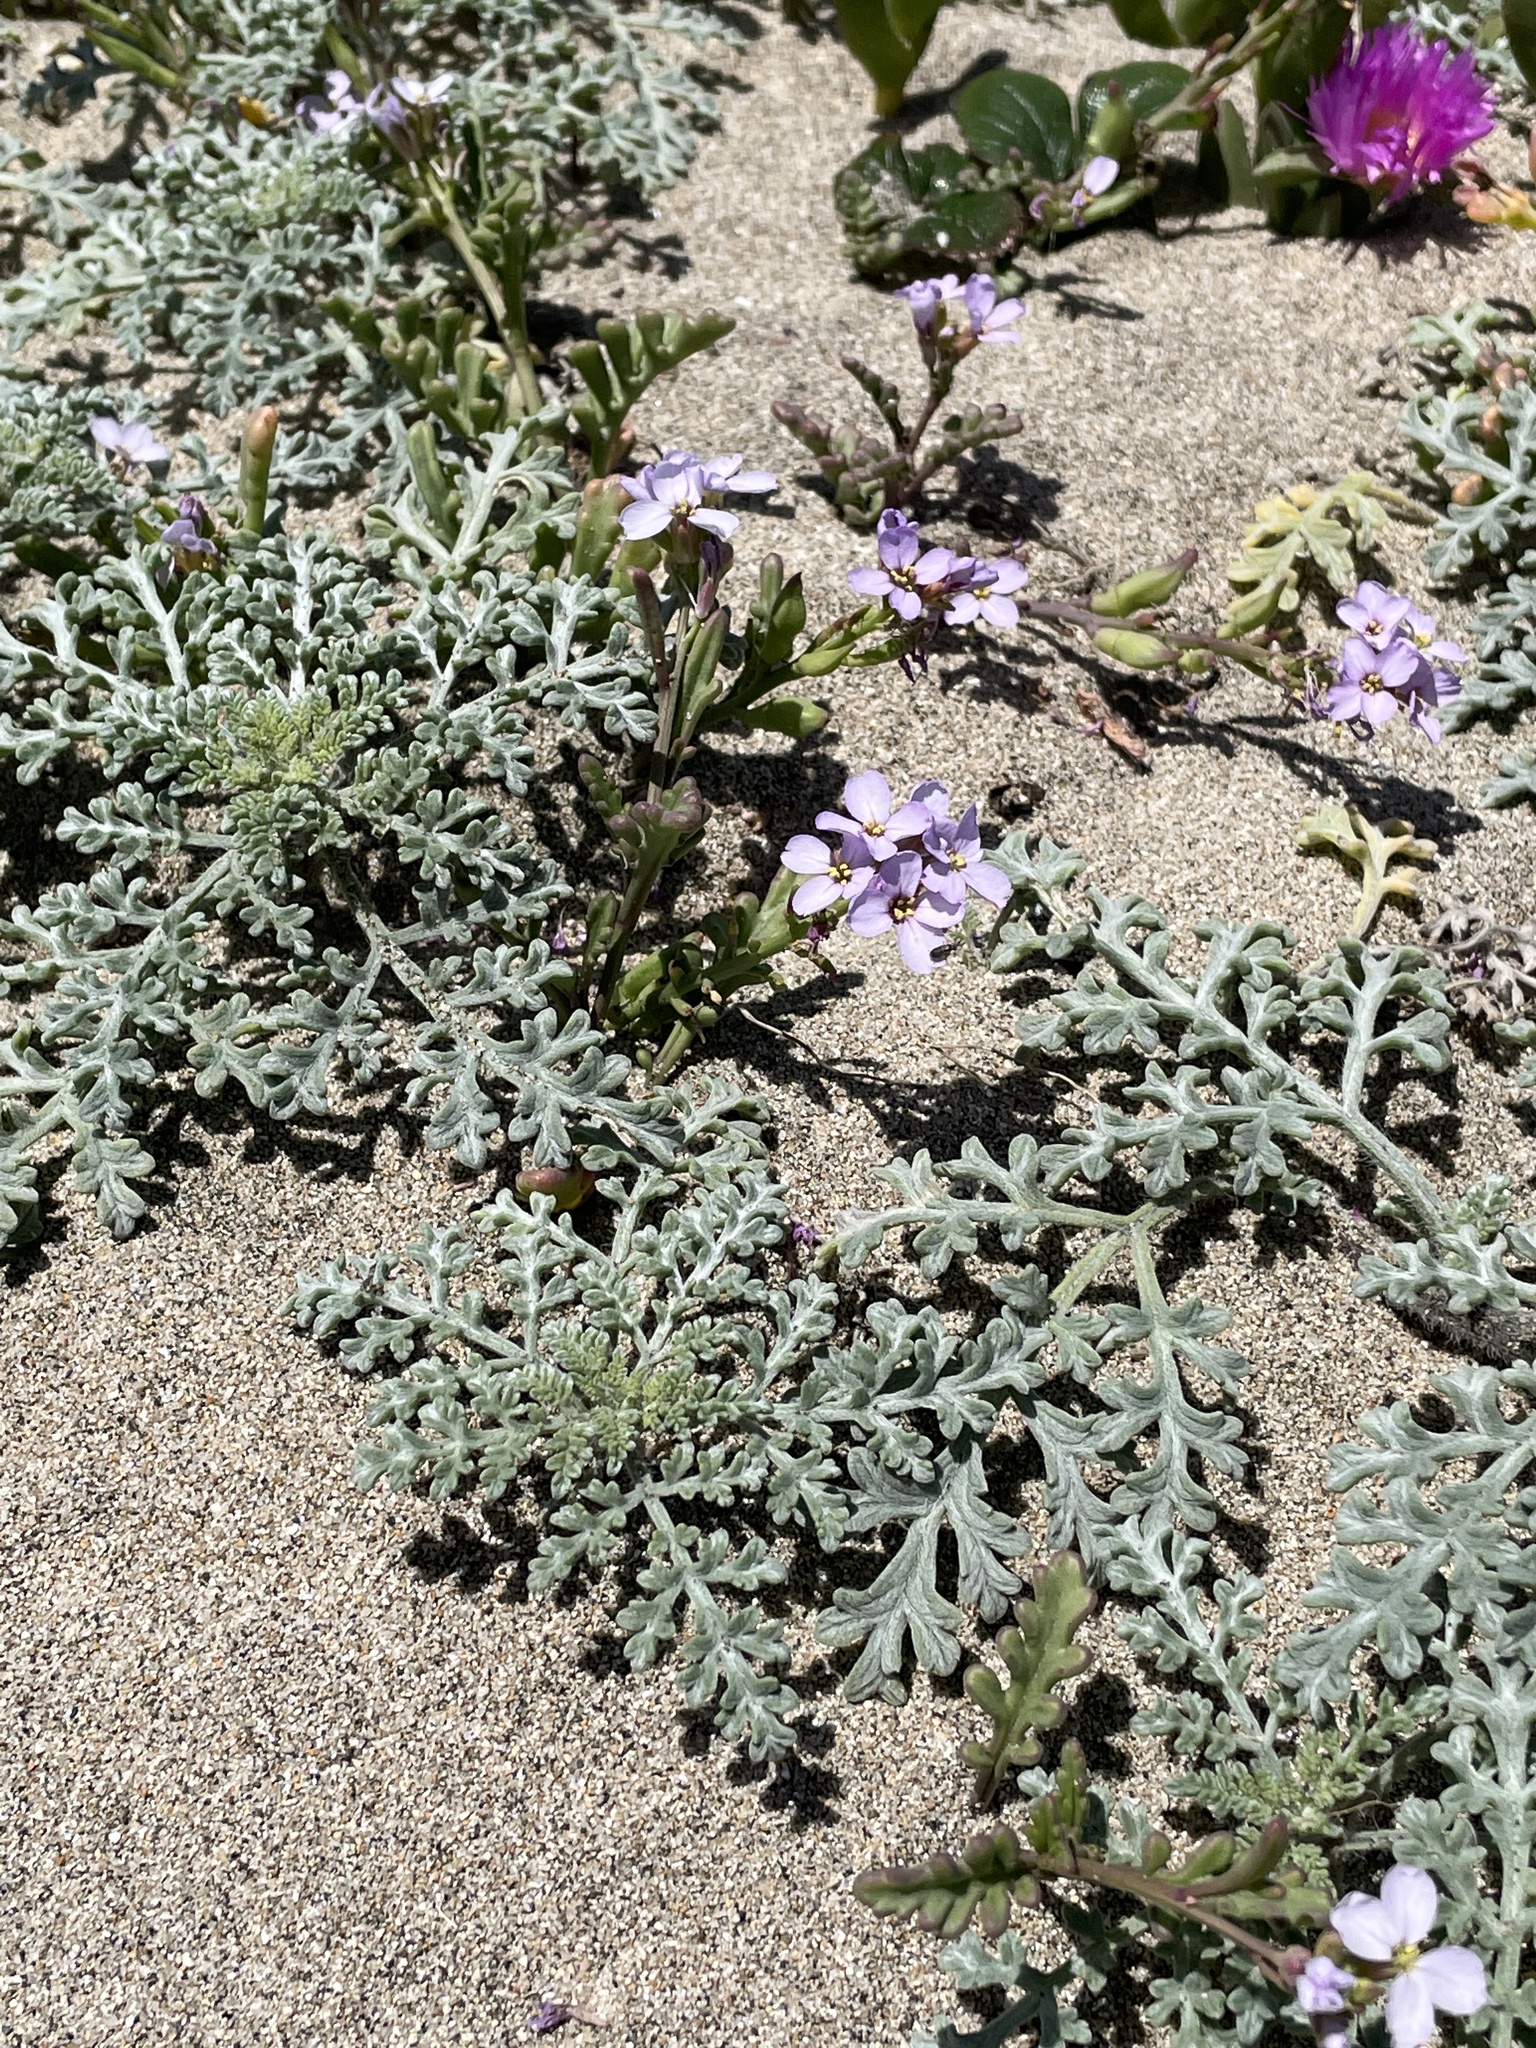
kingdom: Plantae
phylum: Tracheophyta
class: Magnoliopsida
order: Brassicales
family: Brassicaceae
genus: Cakile
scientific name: Cakile maritima
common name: Sea rocket
